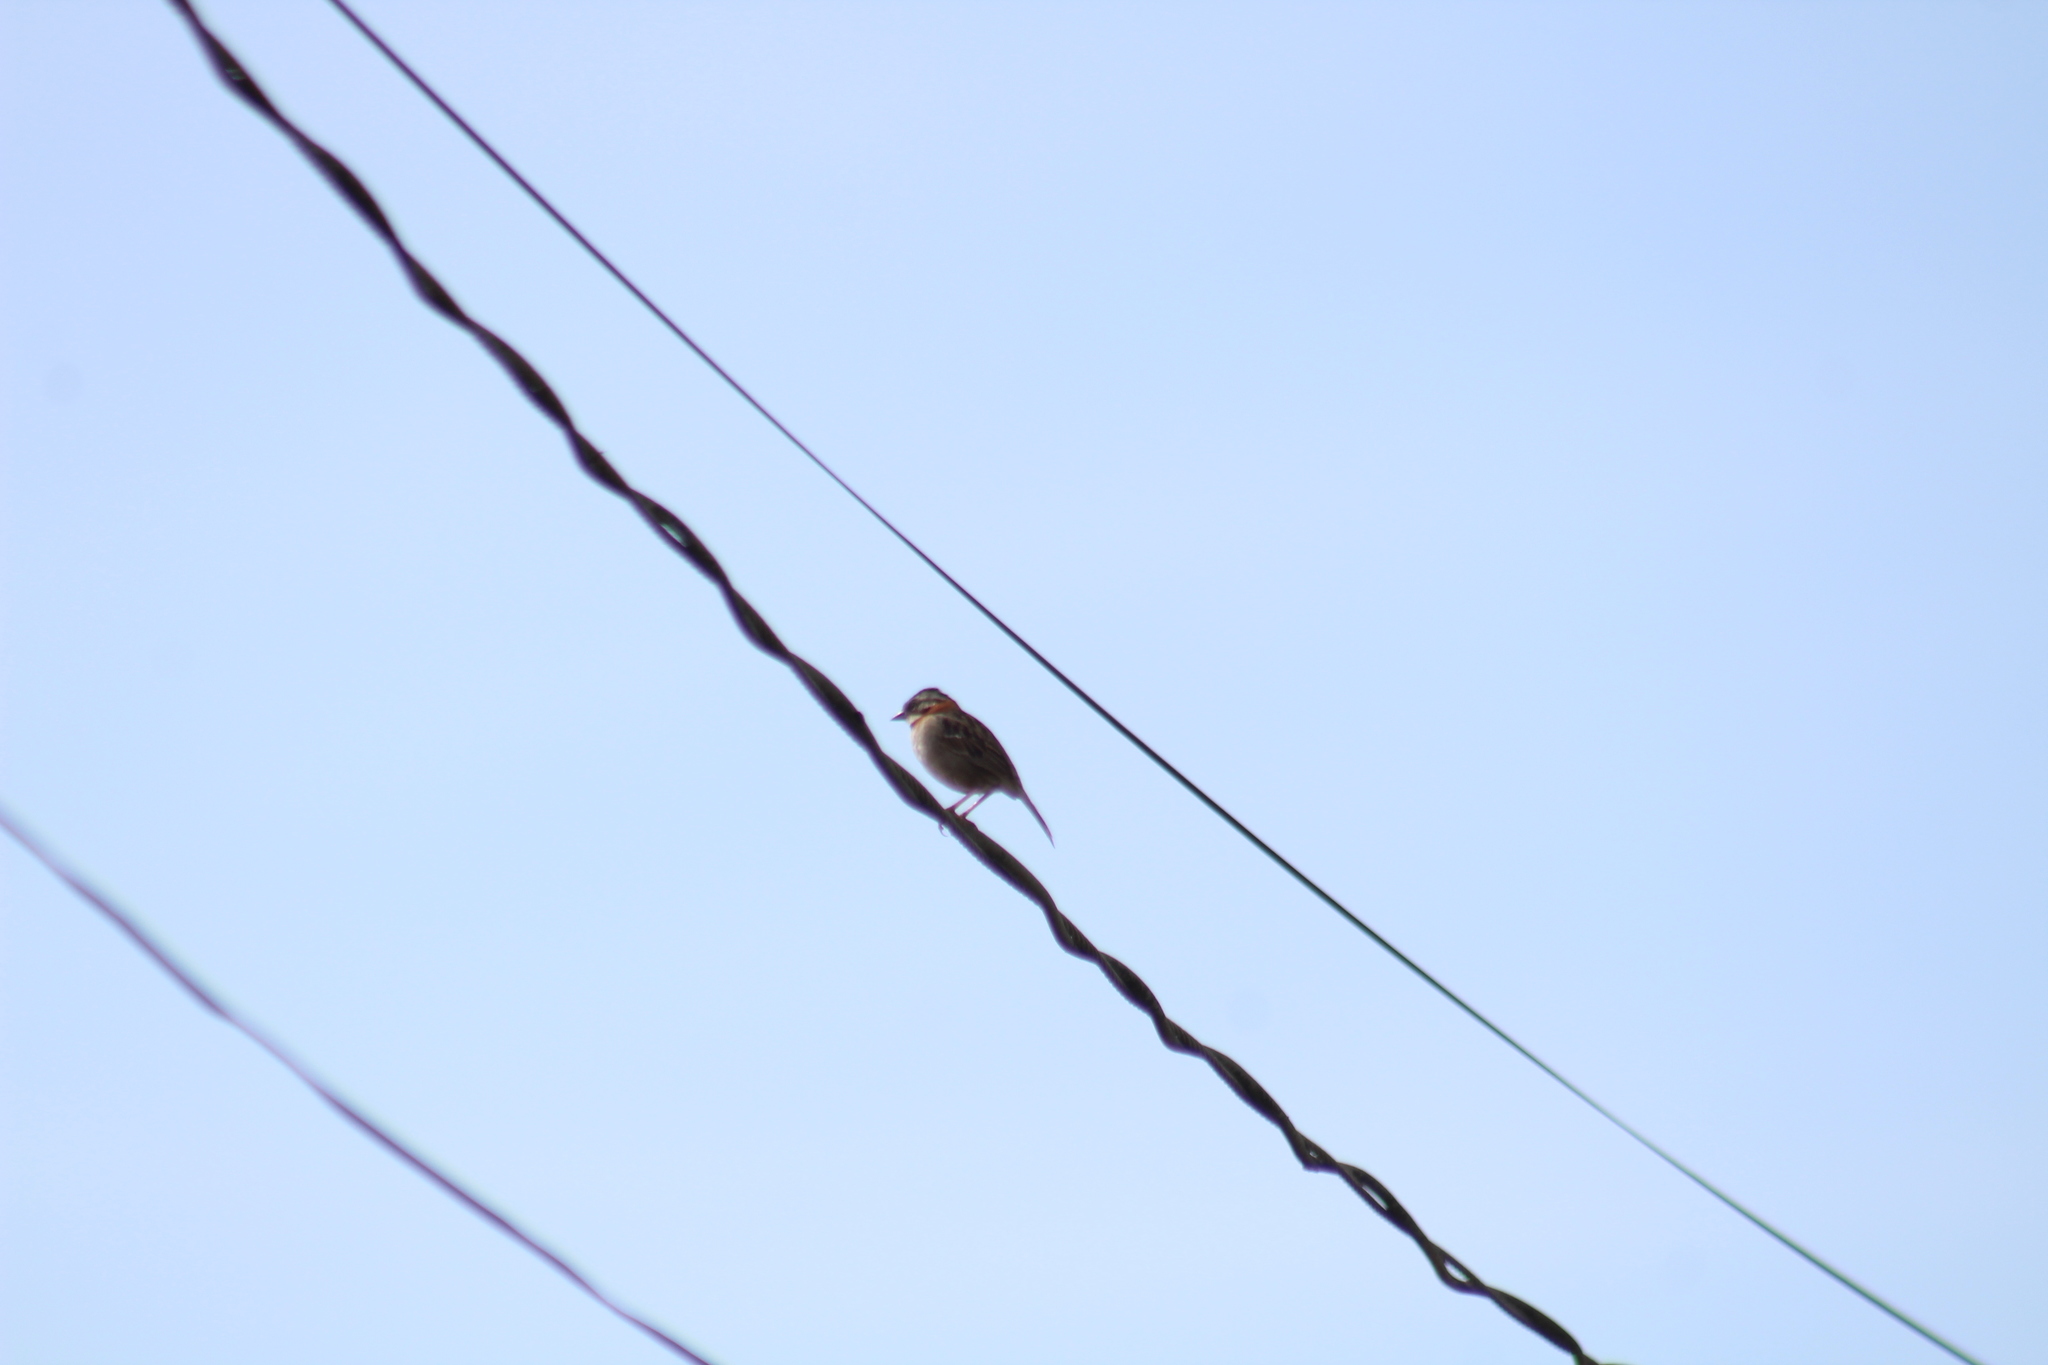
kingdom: Animalia
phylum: Chordata
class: Aves
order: Passeriformes
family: Passerellidae
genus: Zonotrichia
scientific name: Zonotrichia capensis
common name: Rufous-collared sparrow
